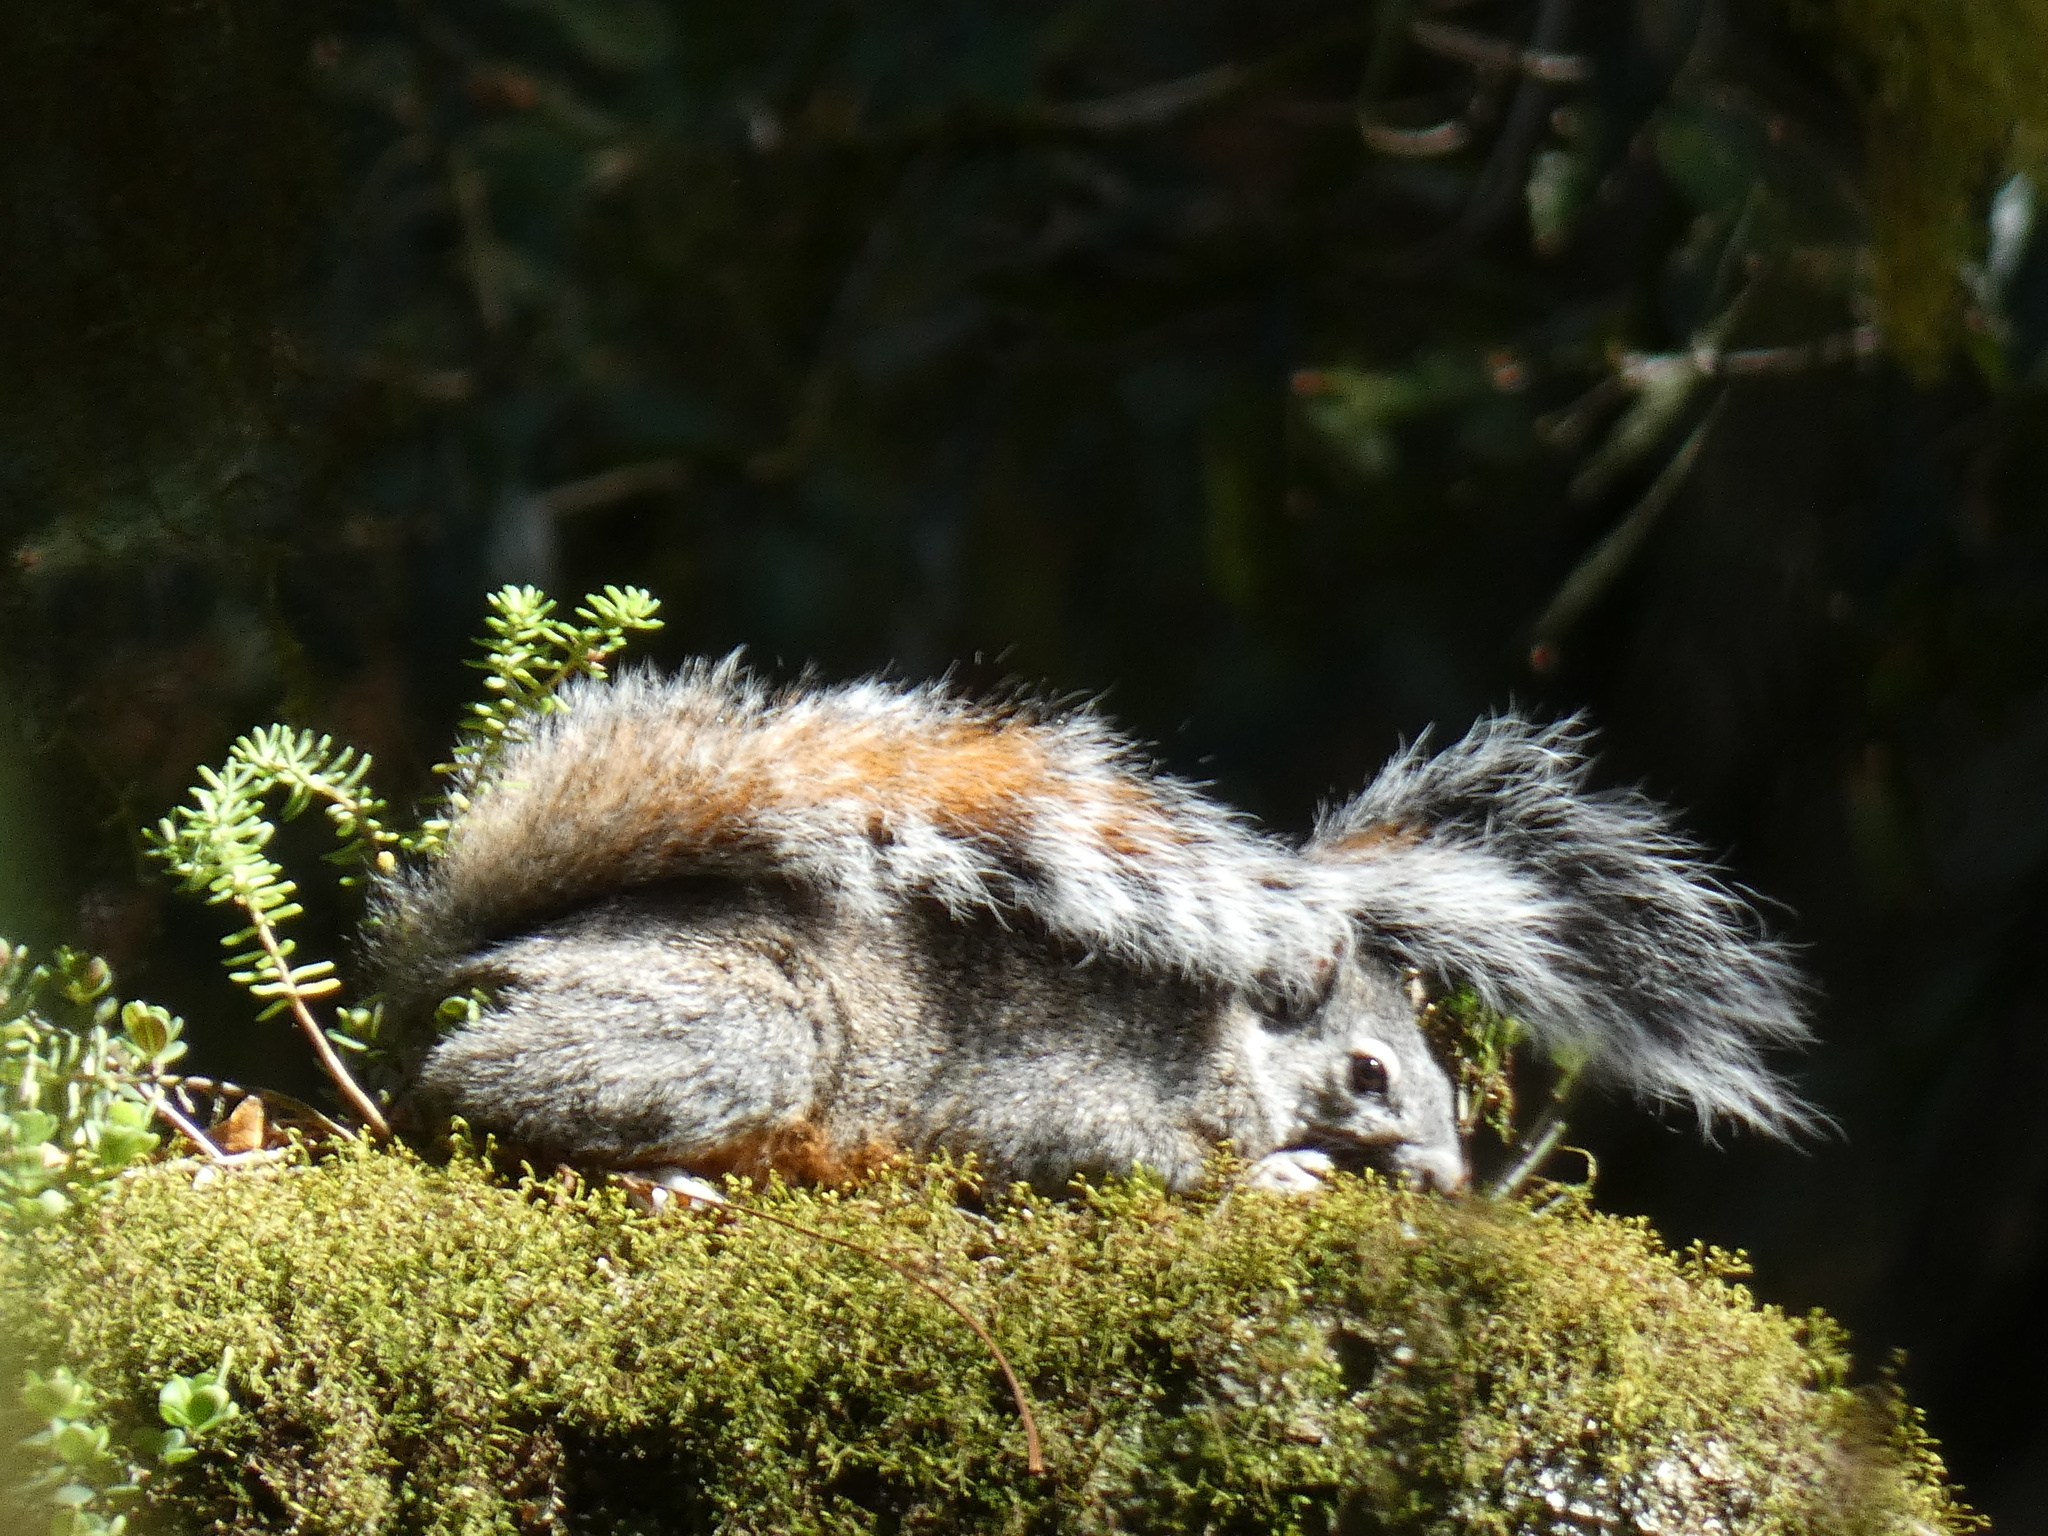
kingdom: Animalia
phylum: Chordata
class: Mammalia
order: Rodentia
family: Sciuridae
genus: Sciurus
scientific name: Sciurus aureogaster
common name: Red-bellied squirrel
